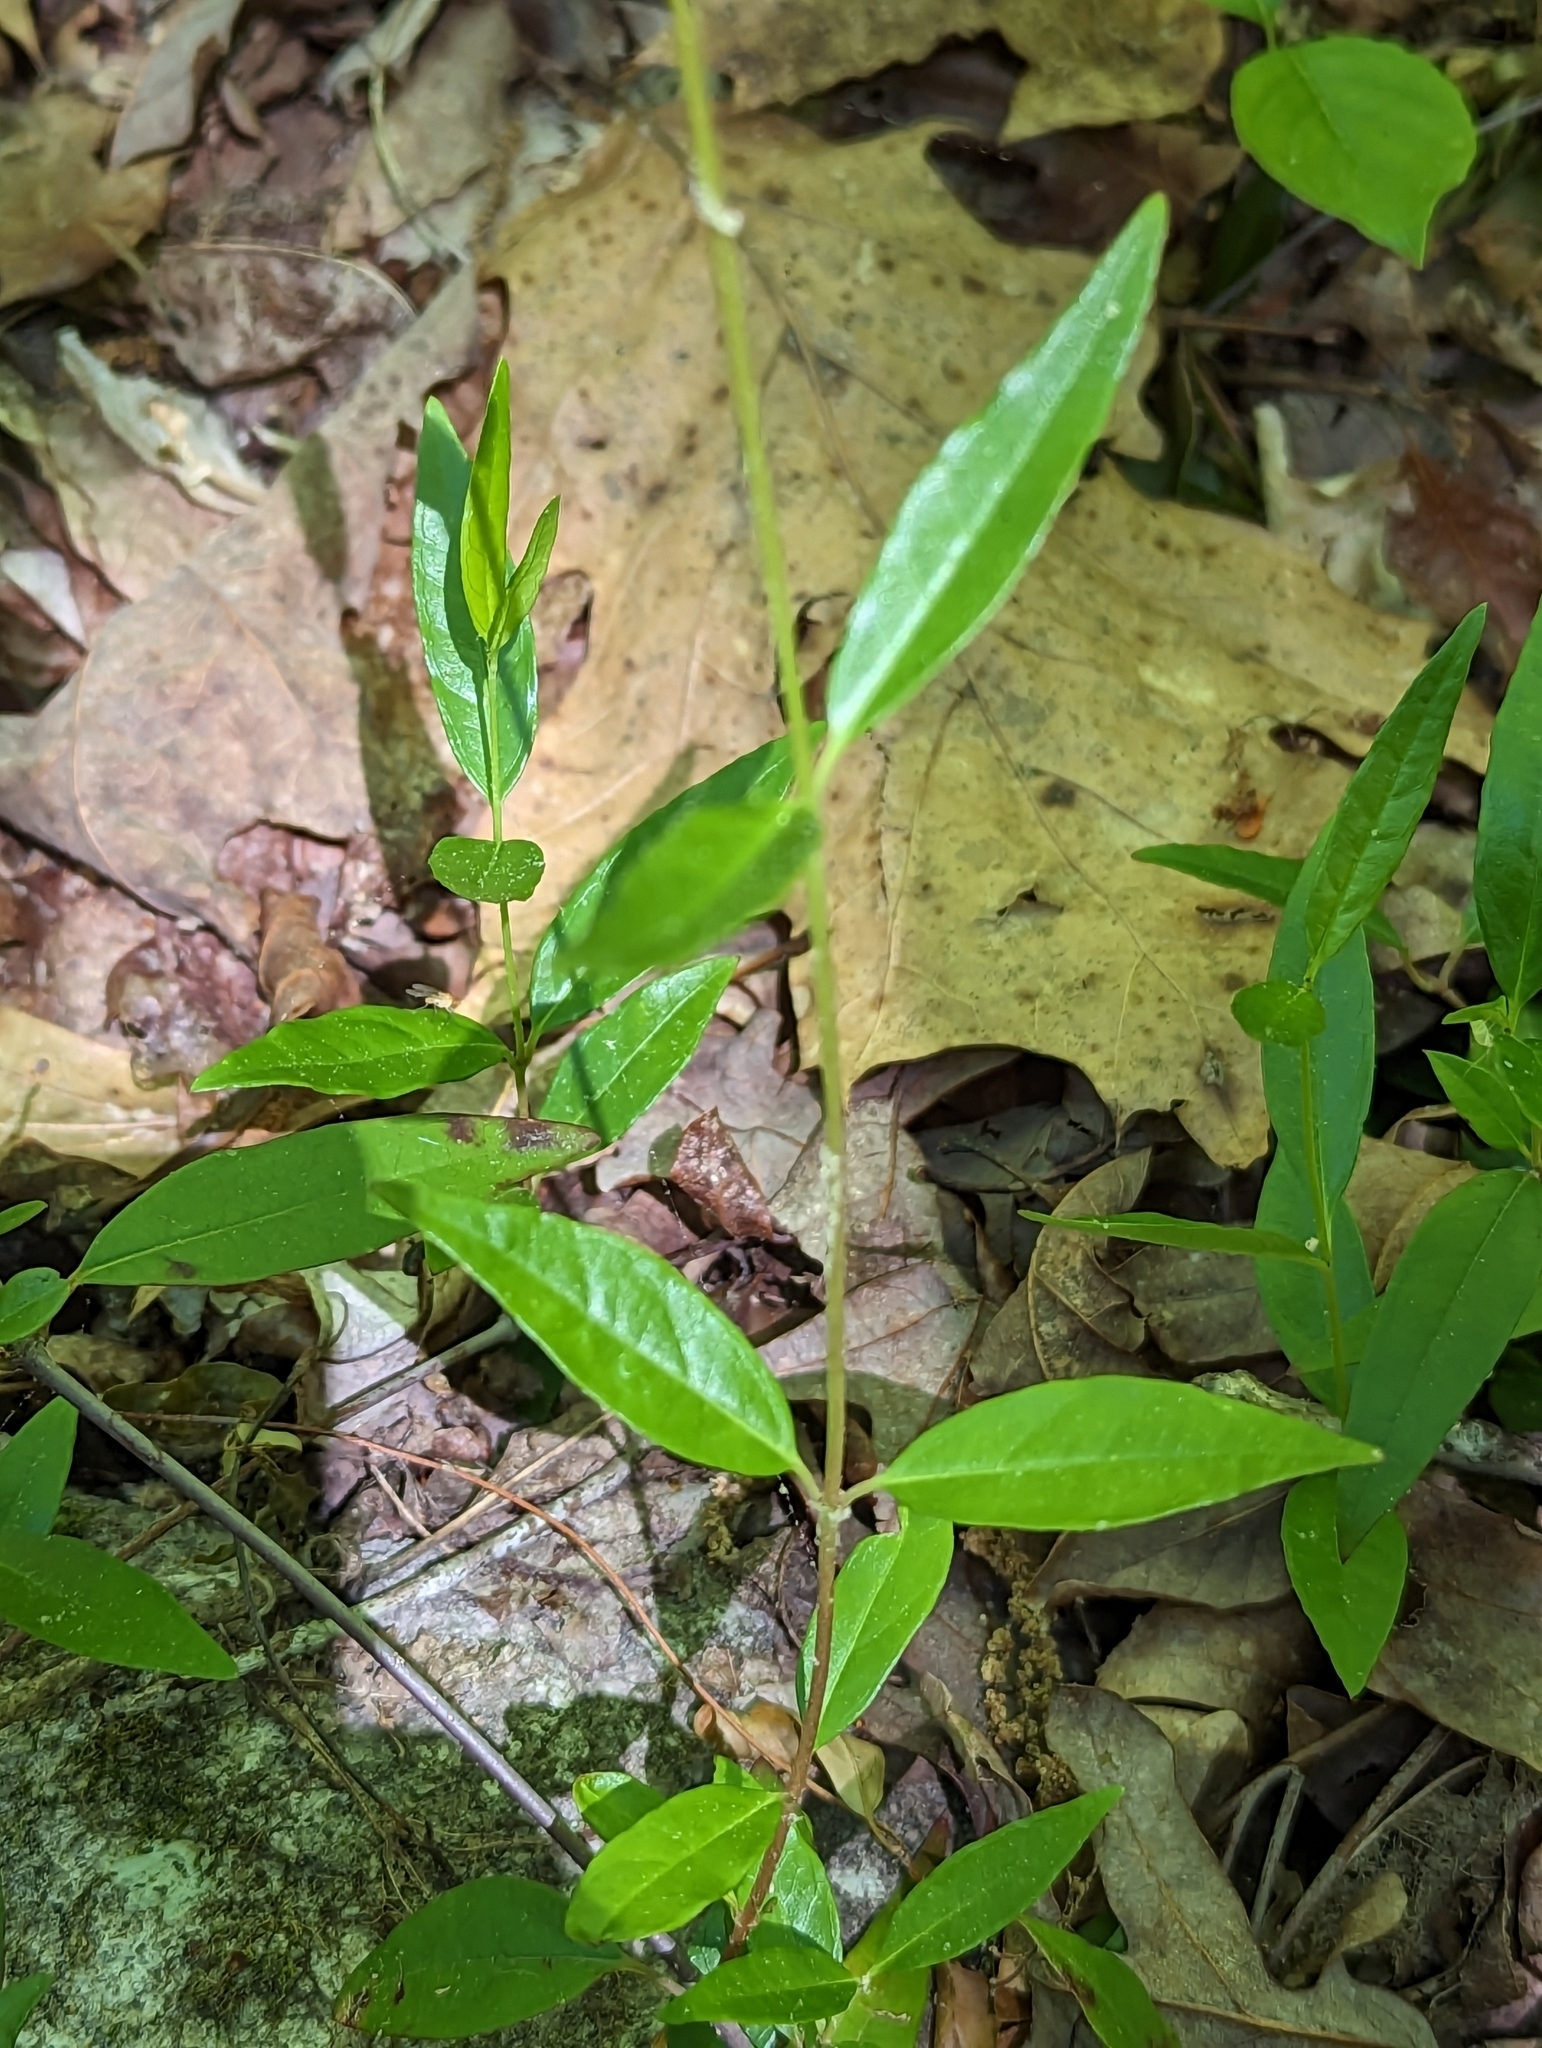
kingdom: Plantae
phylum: Tracheophyta
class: Magnoliopsida
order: Gentianales
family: Gelsemiaceae
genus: Gelsemium
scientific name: Gelsemium sempervirens
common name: Carolina-jasmine
